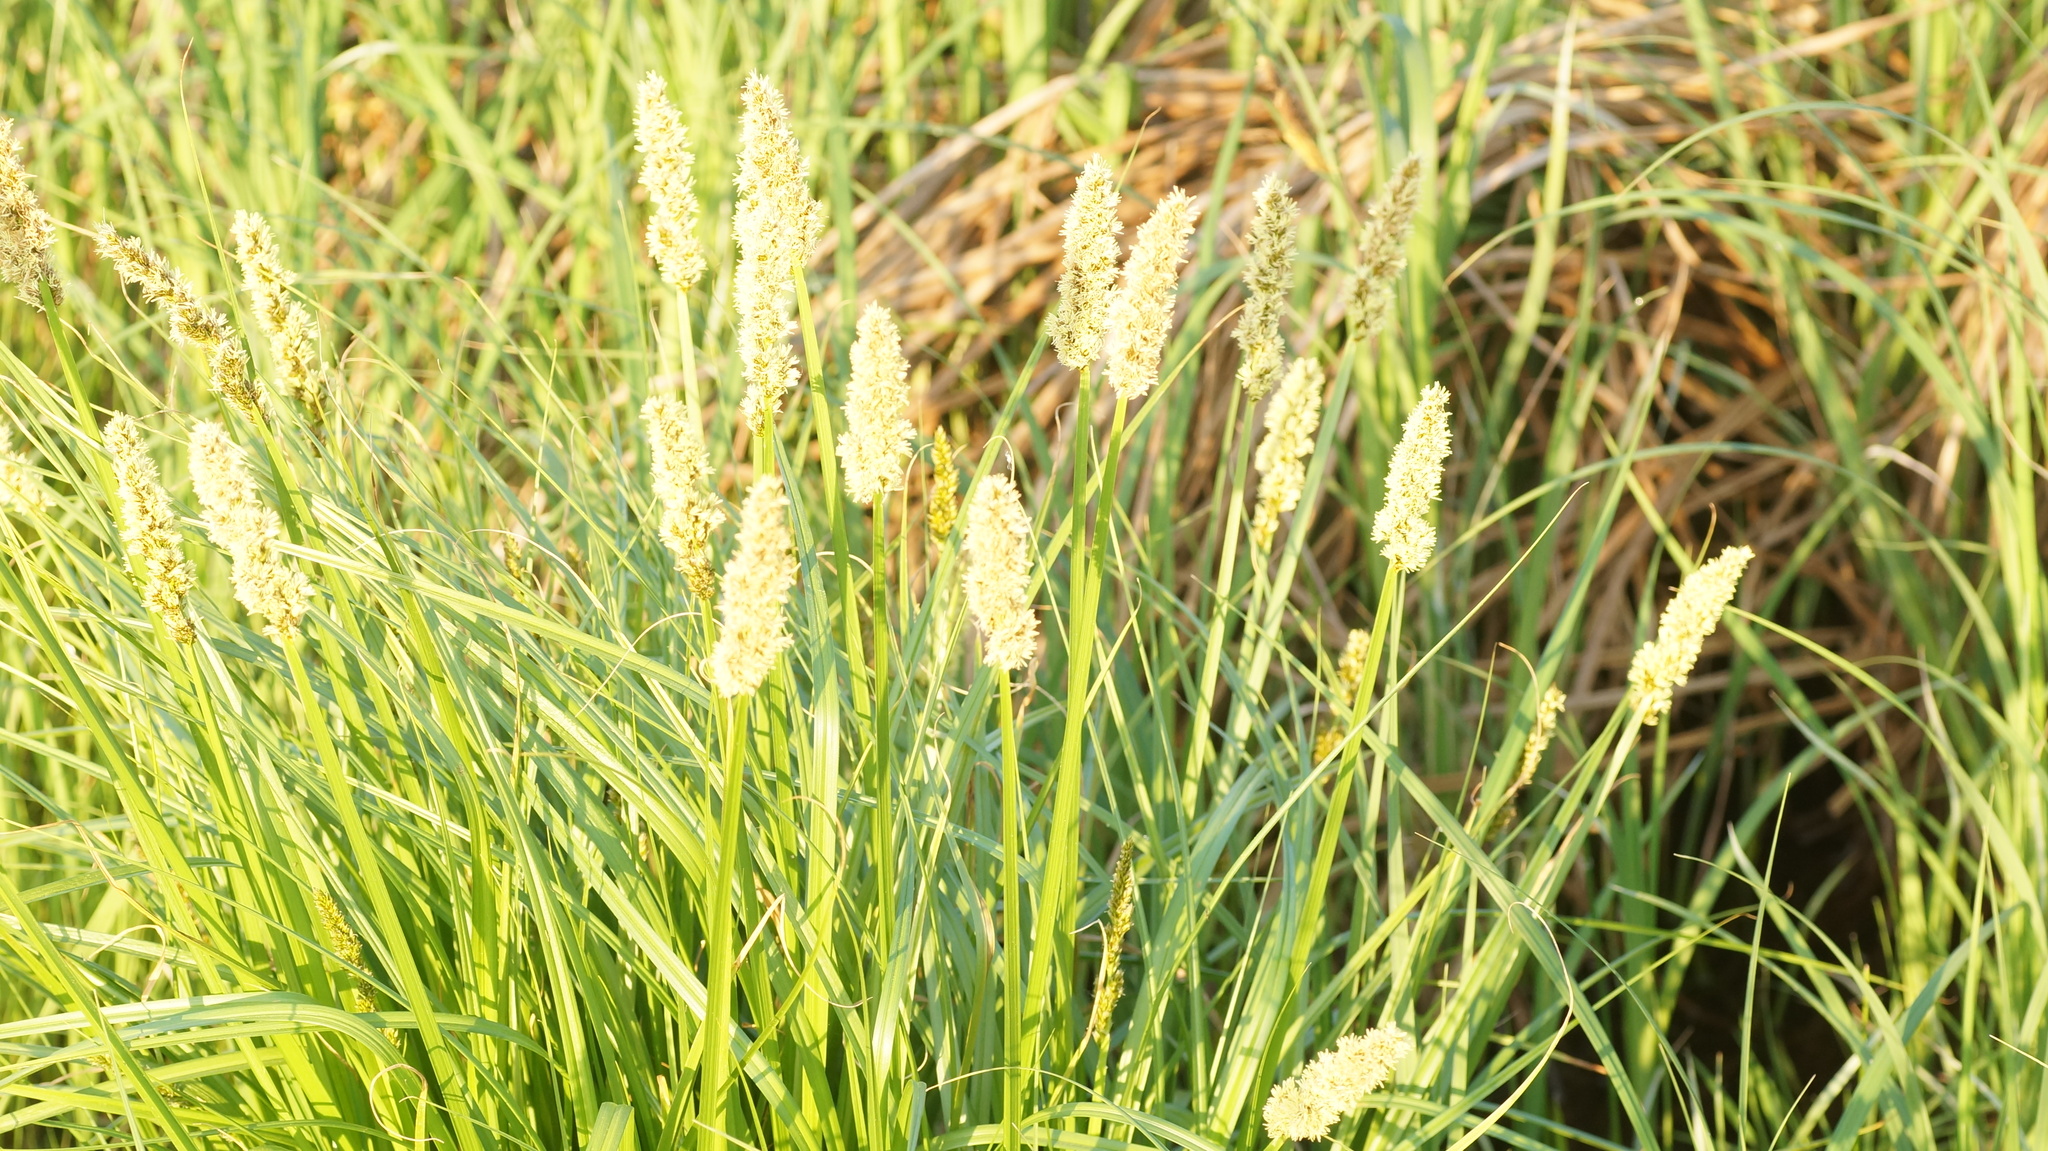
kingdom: Plantae
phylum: Tracheophyta
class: Liliopsida
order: Poales
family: Cyperaceae
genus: Carex
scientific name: Carex vulpina
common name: True fox-sedge
